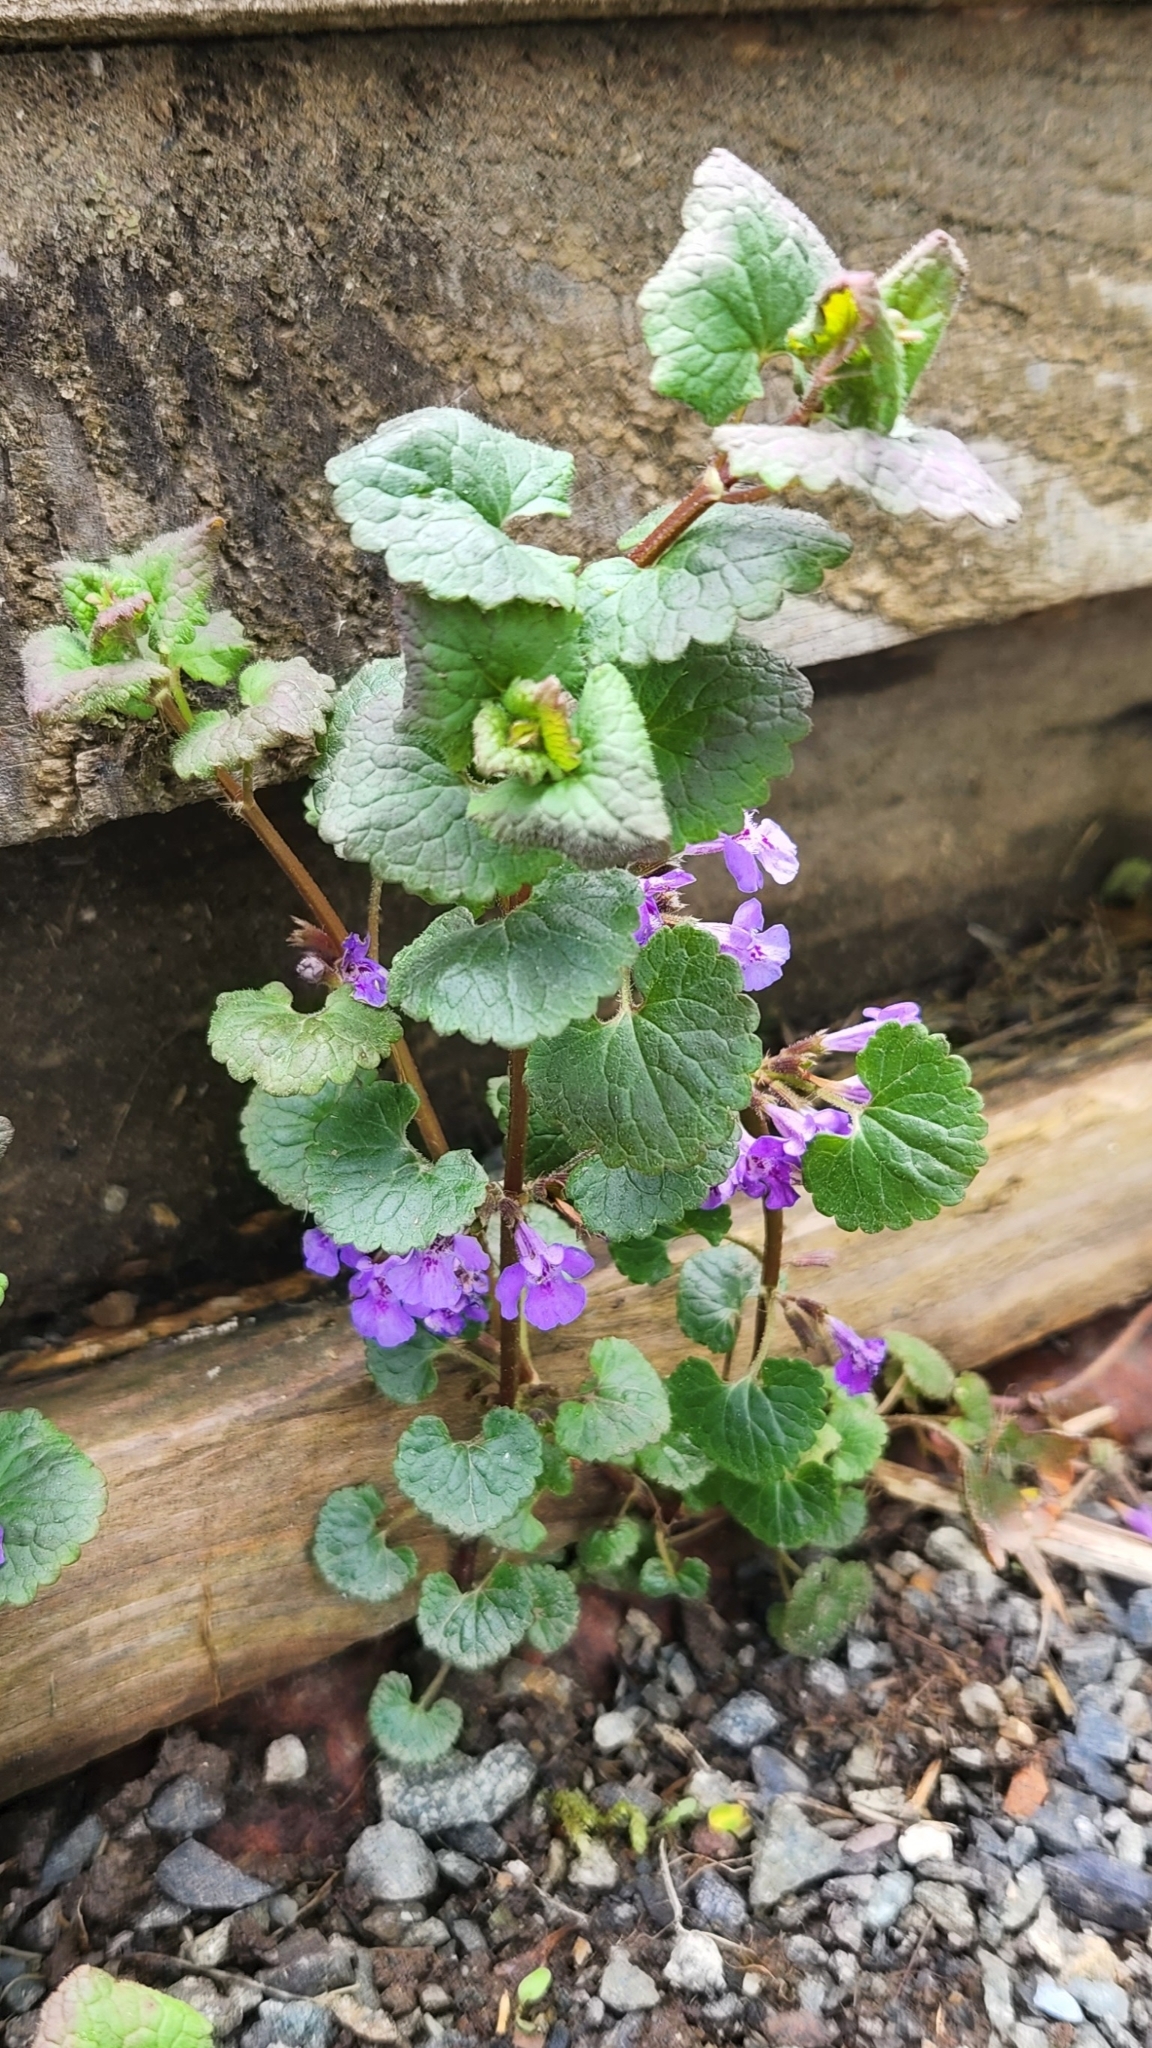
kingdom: Plantae
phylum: Tracheophyta
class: Magnoliopsida
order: Lamiales
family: Lamiaceae
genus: Glechoma
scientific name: Glechoma hederacea
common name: Ground ivy
